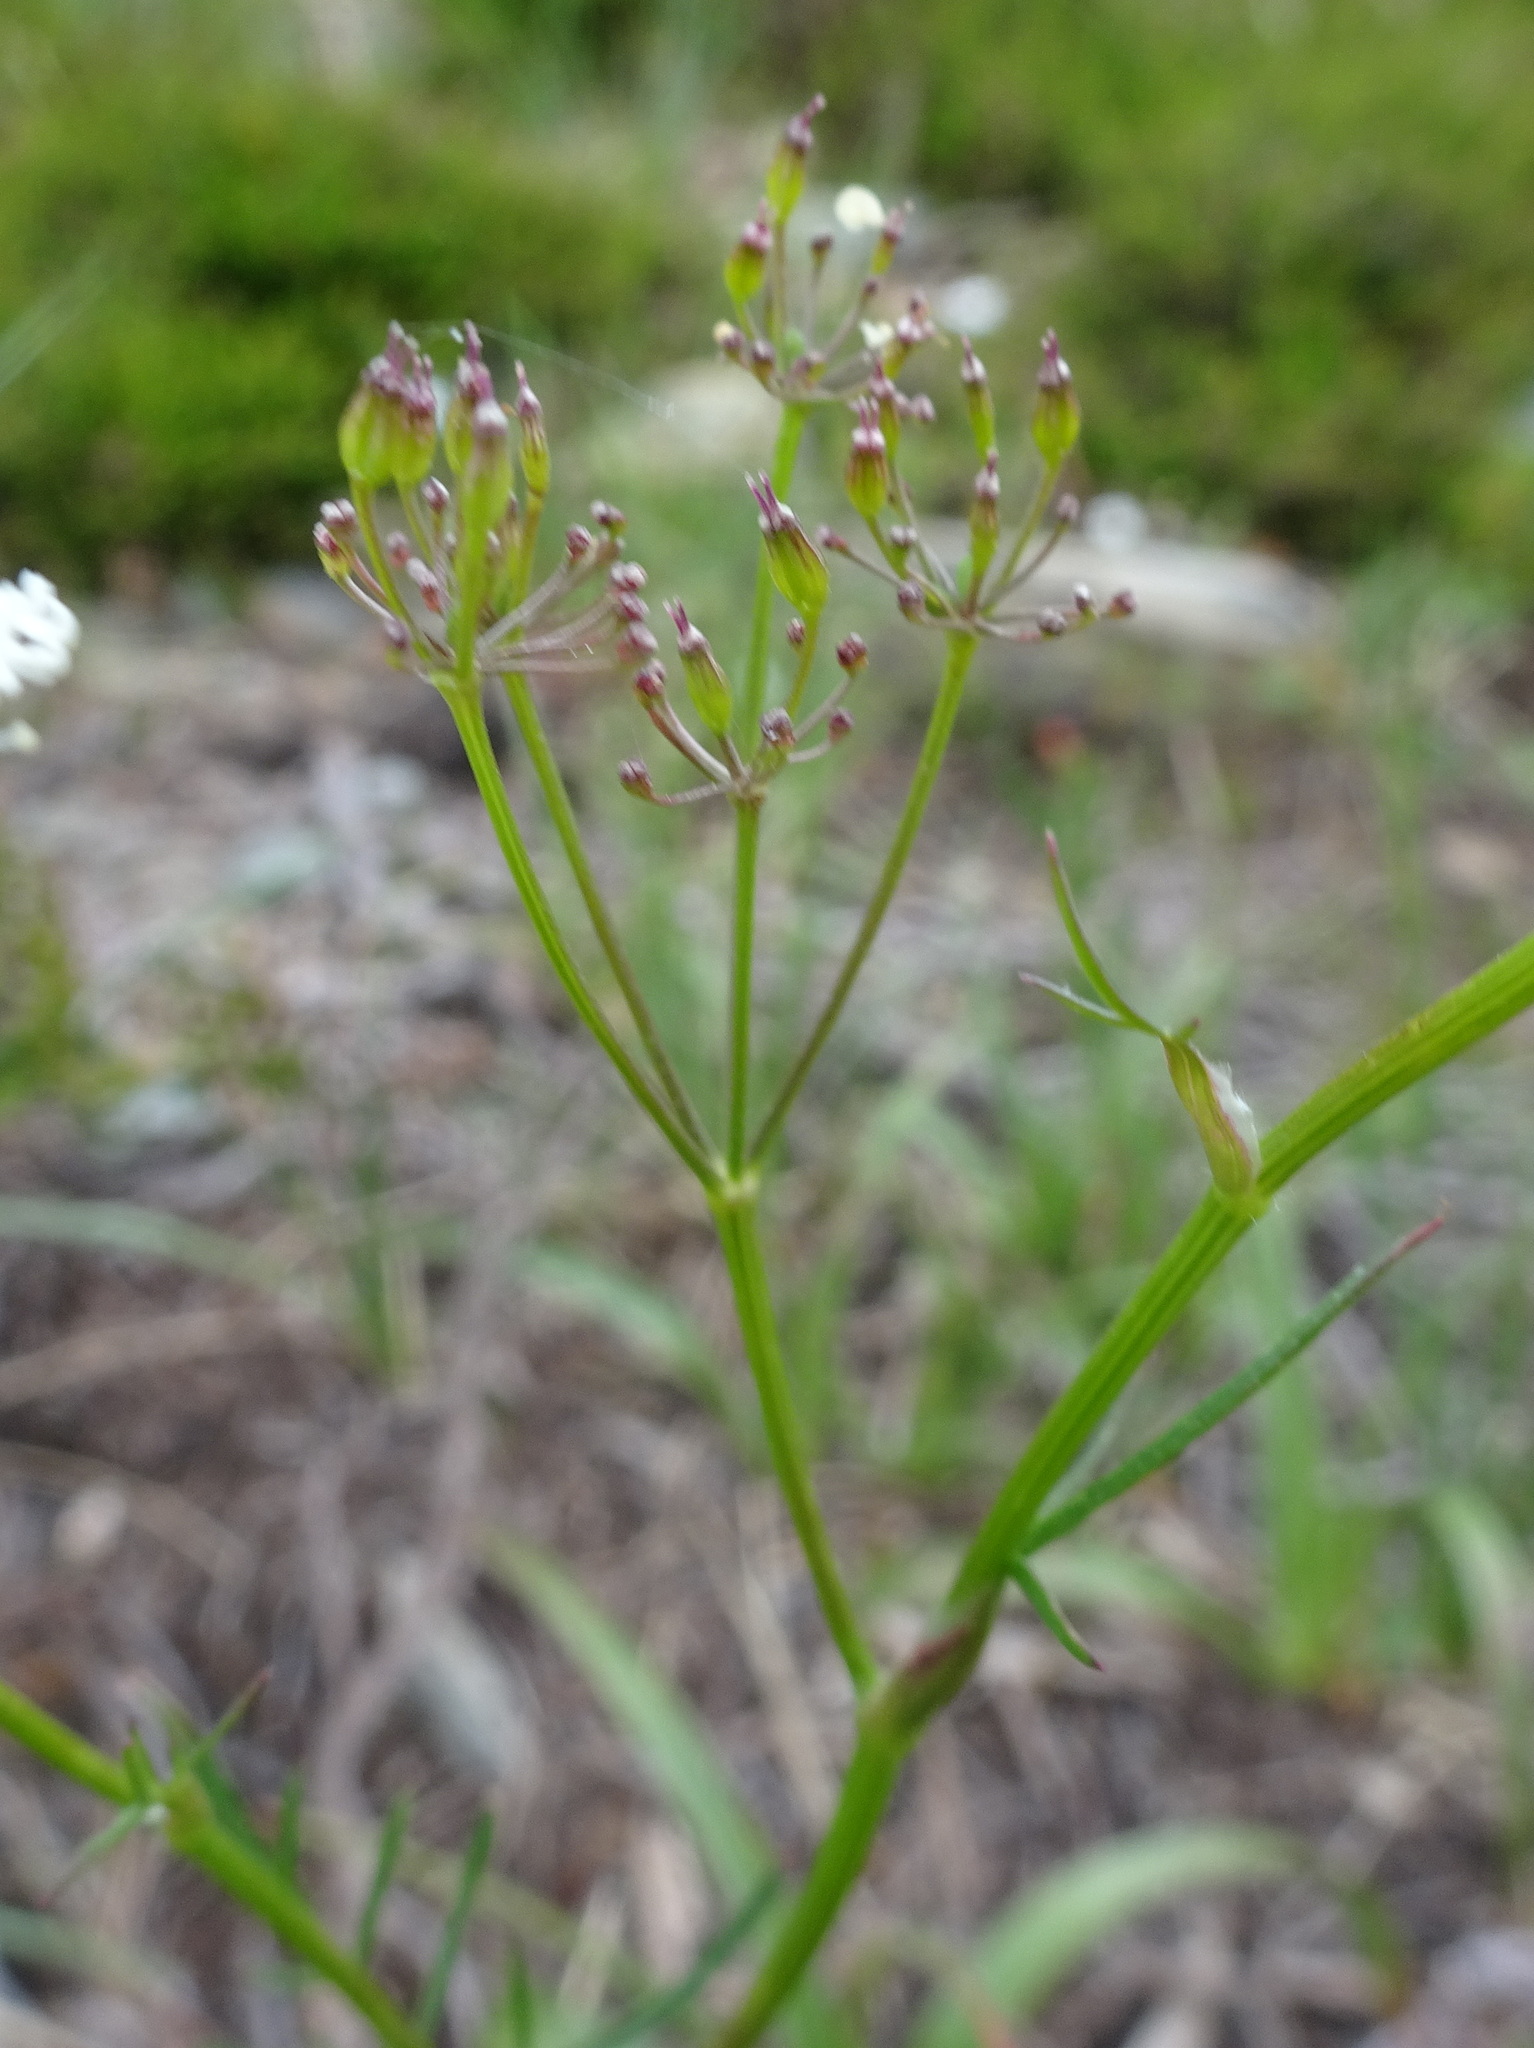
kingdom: Plantae
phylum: Tracheophyta
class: Magnoliopsida
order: Apiales
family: Apiaceae
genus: Conopodium
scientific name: Conopodium majus
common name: Pignut
